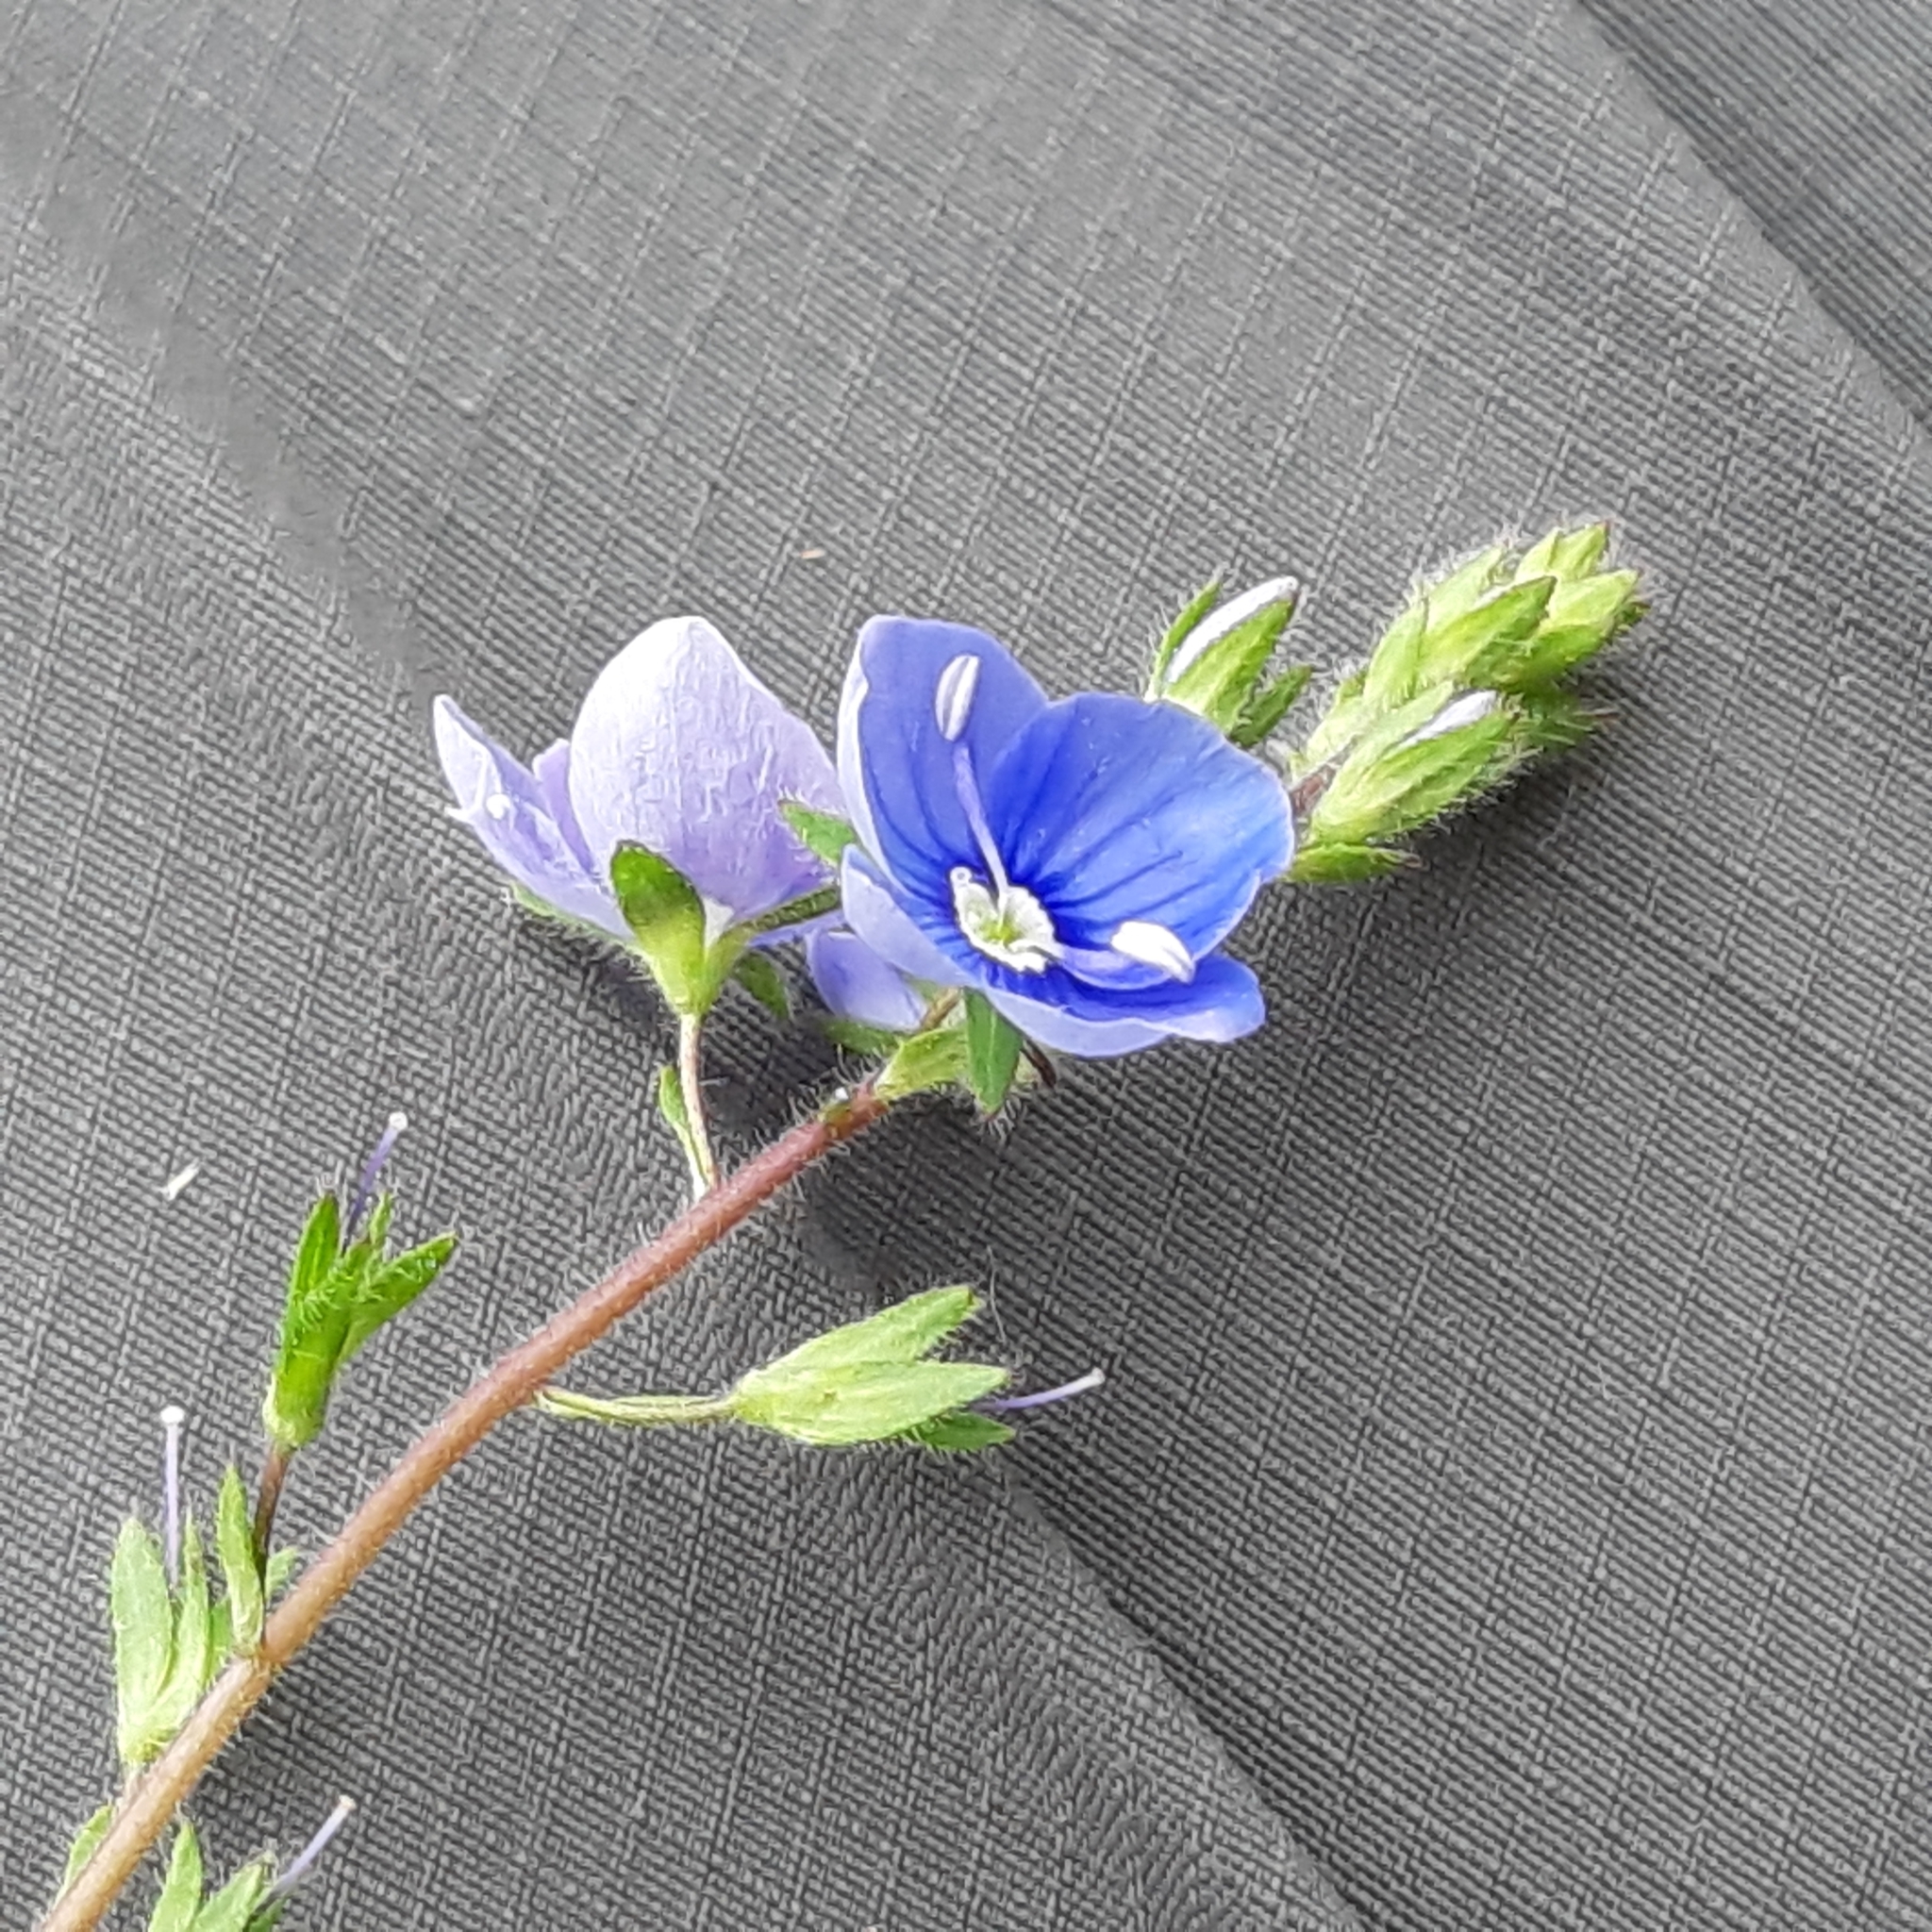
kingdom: Plantae
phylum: Tracheophyta
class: Magnoliopsida
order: Lamiales
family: Plantaginaceae
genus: Veronica
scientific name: Veronica chamaedrys
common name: Germander speedwell
